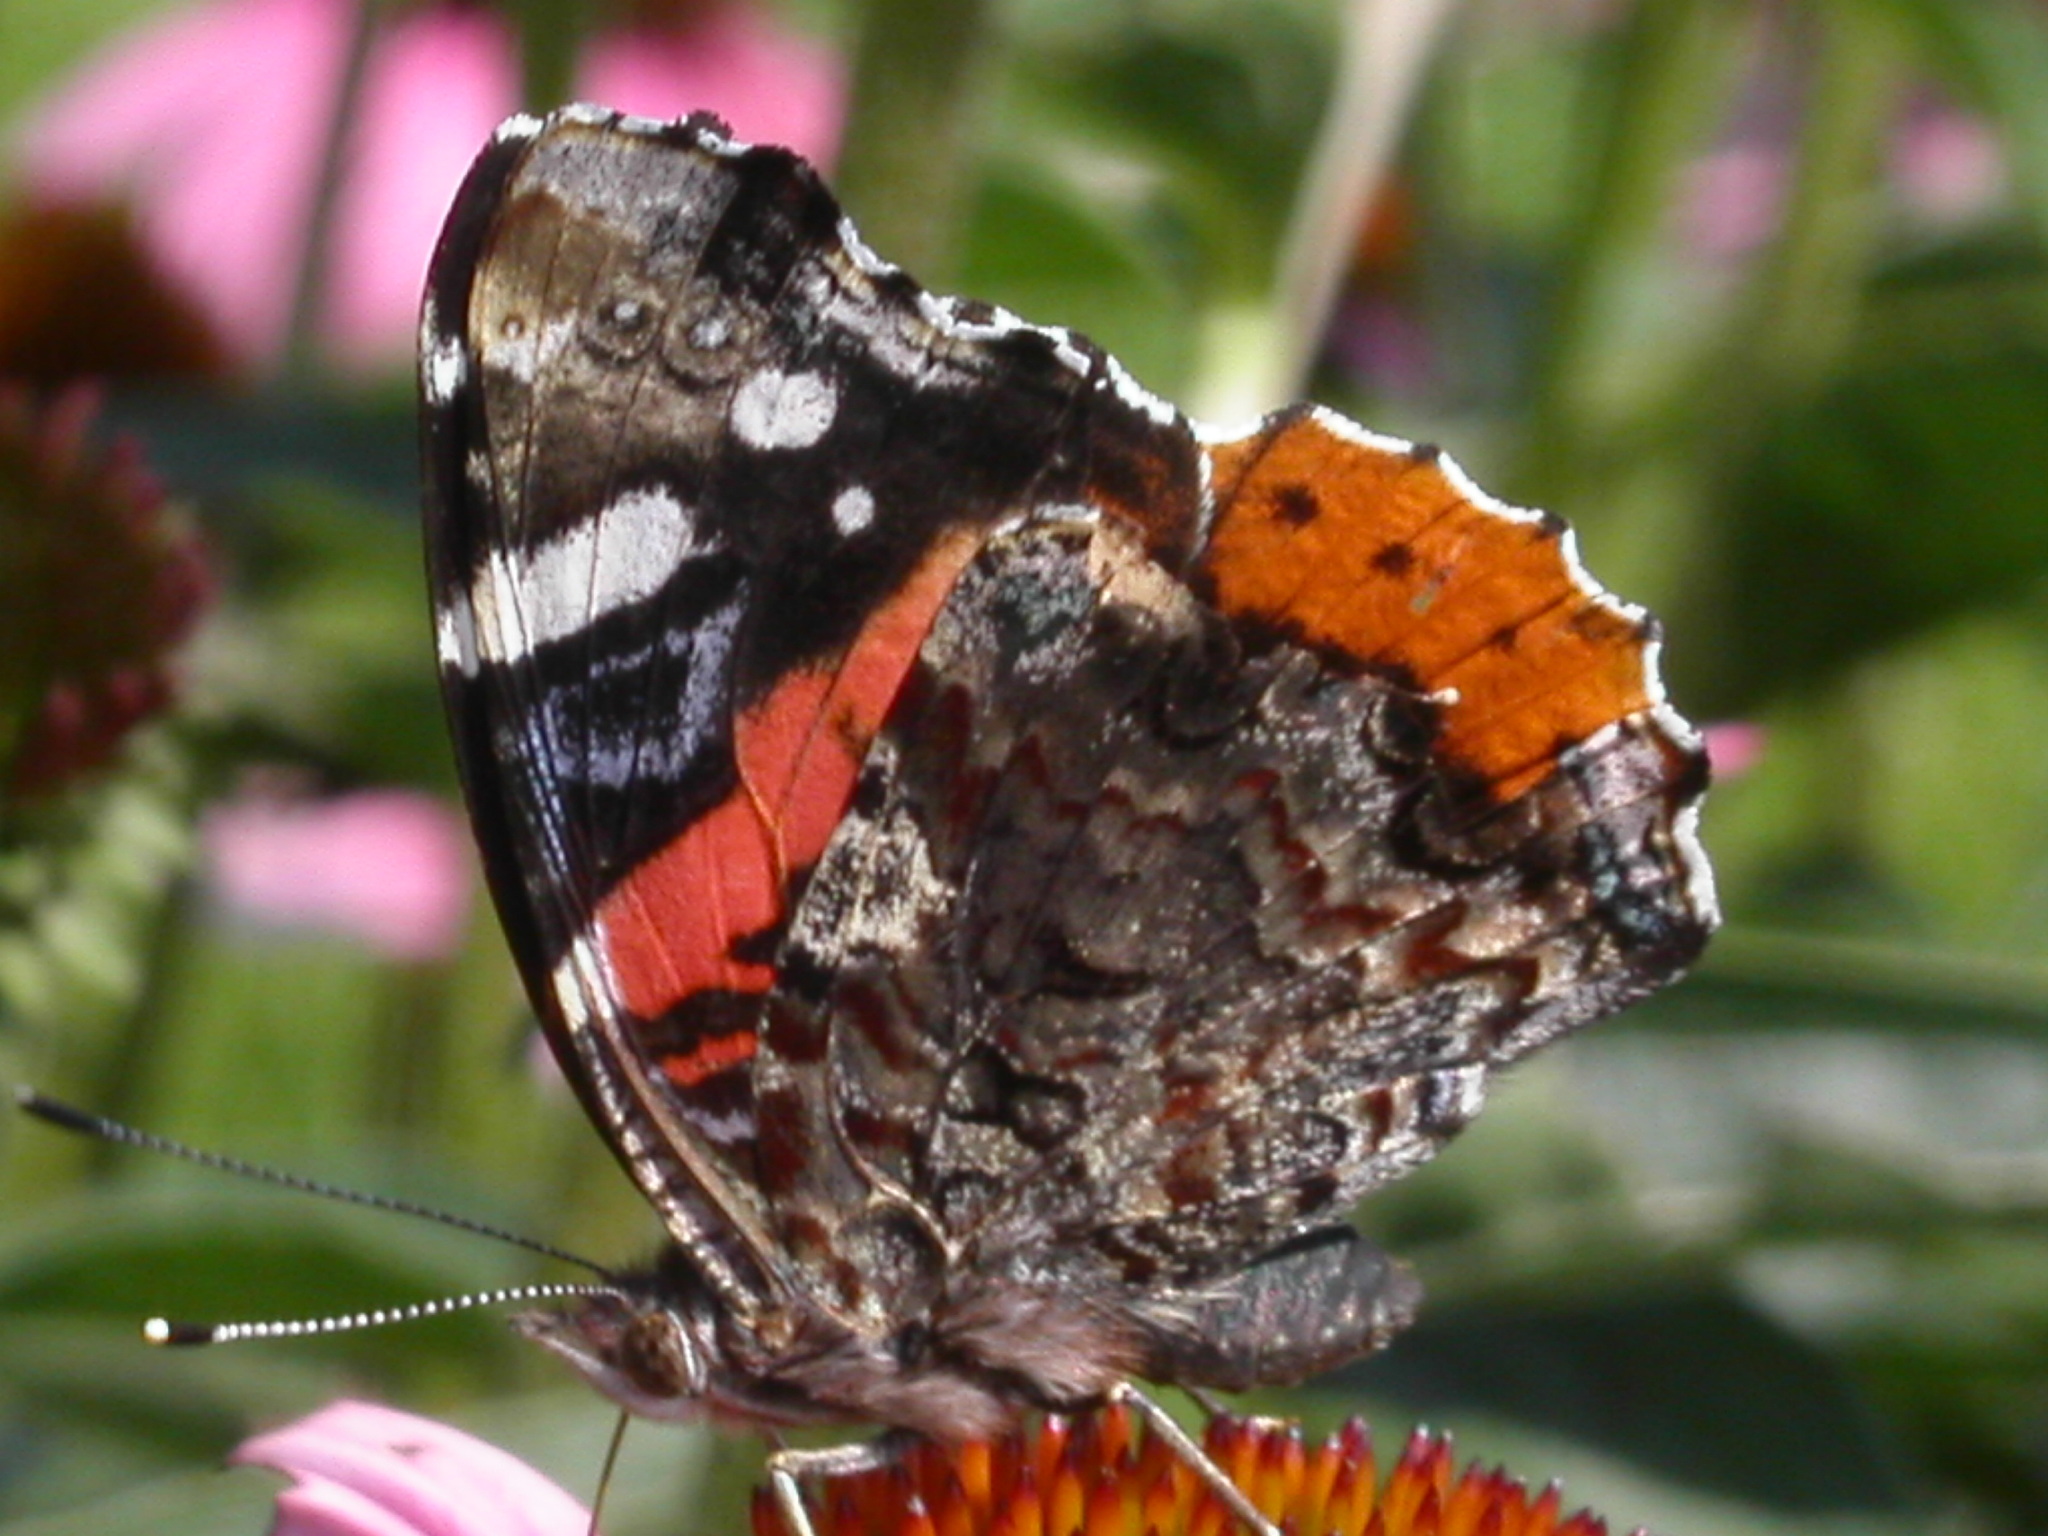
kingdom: Animalia
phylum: Arthropoda
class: Insecta
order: Lepidoptera
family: Nymphalidae
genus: Vanessa
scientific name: Vanessa atalanta
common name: Red admiral
